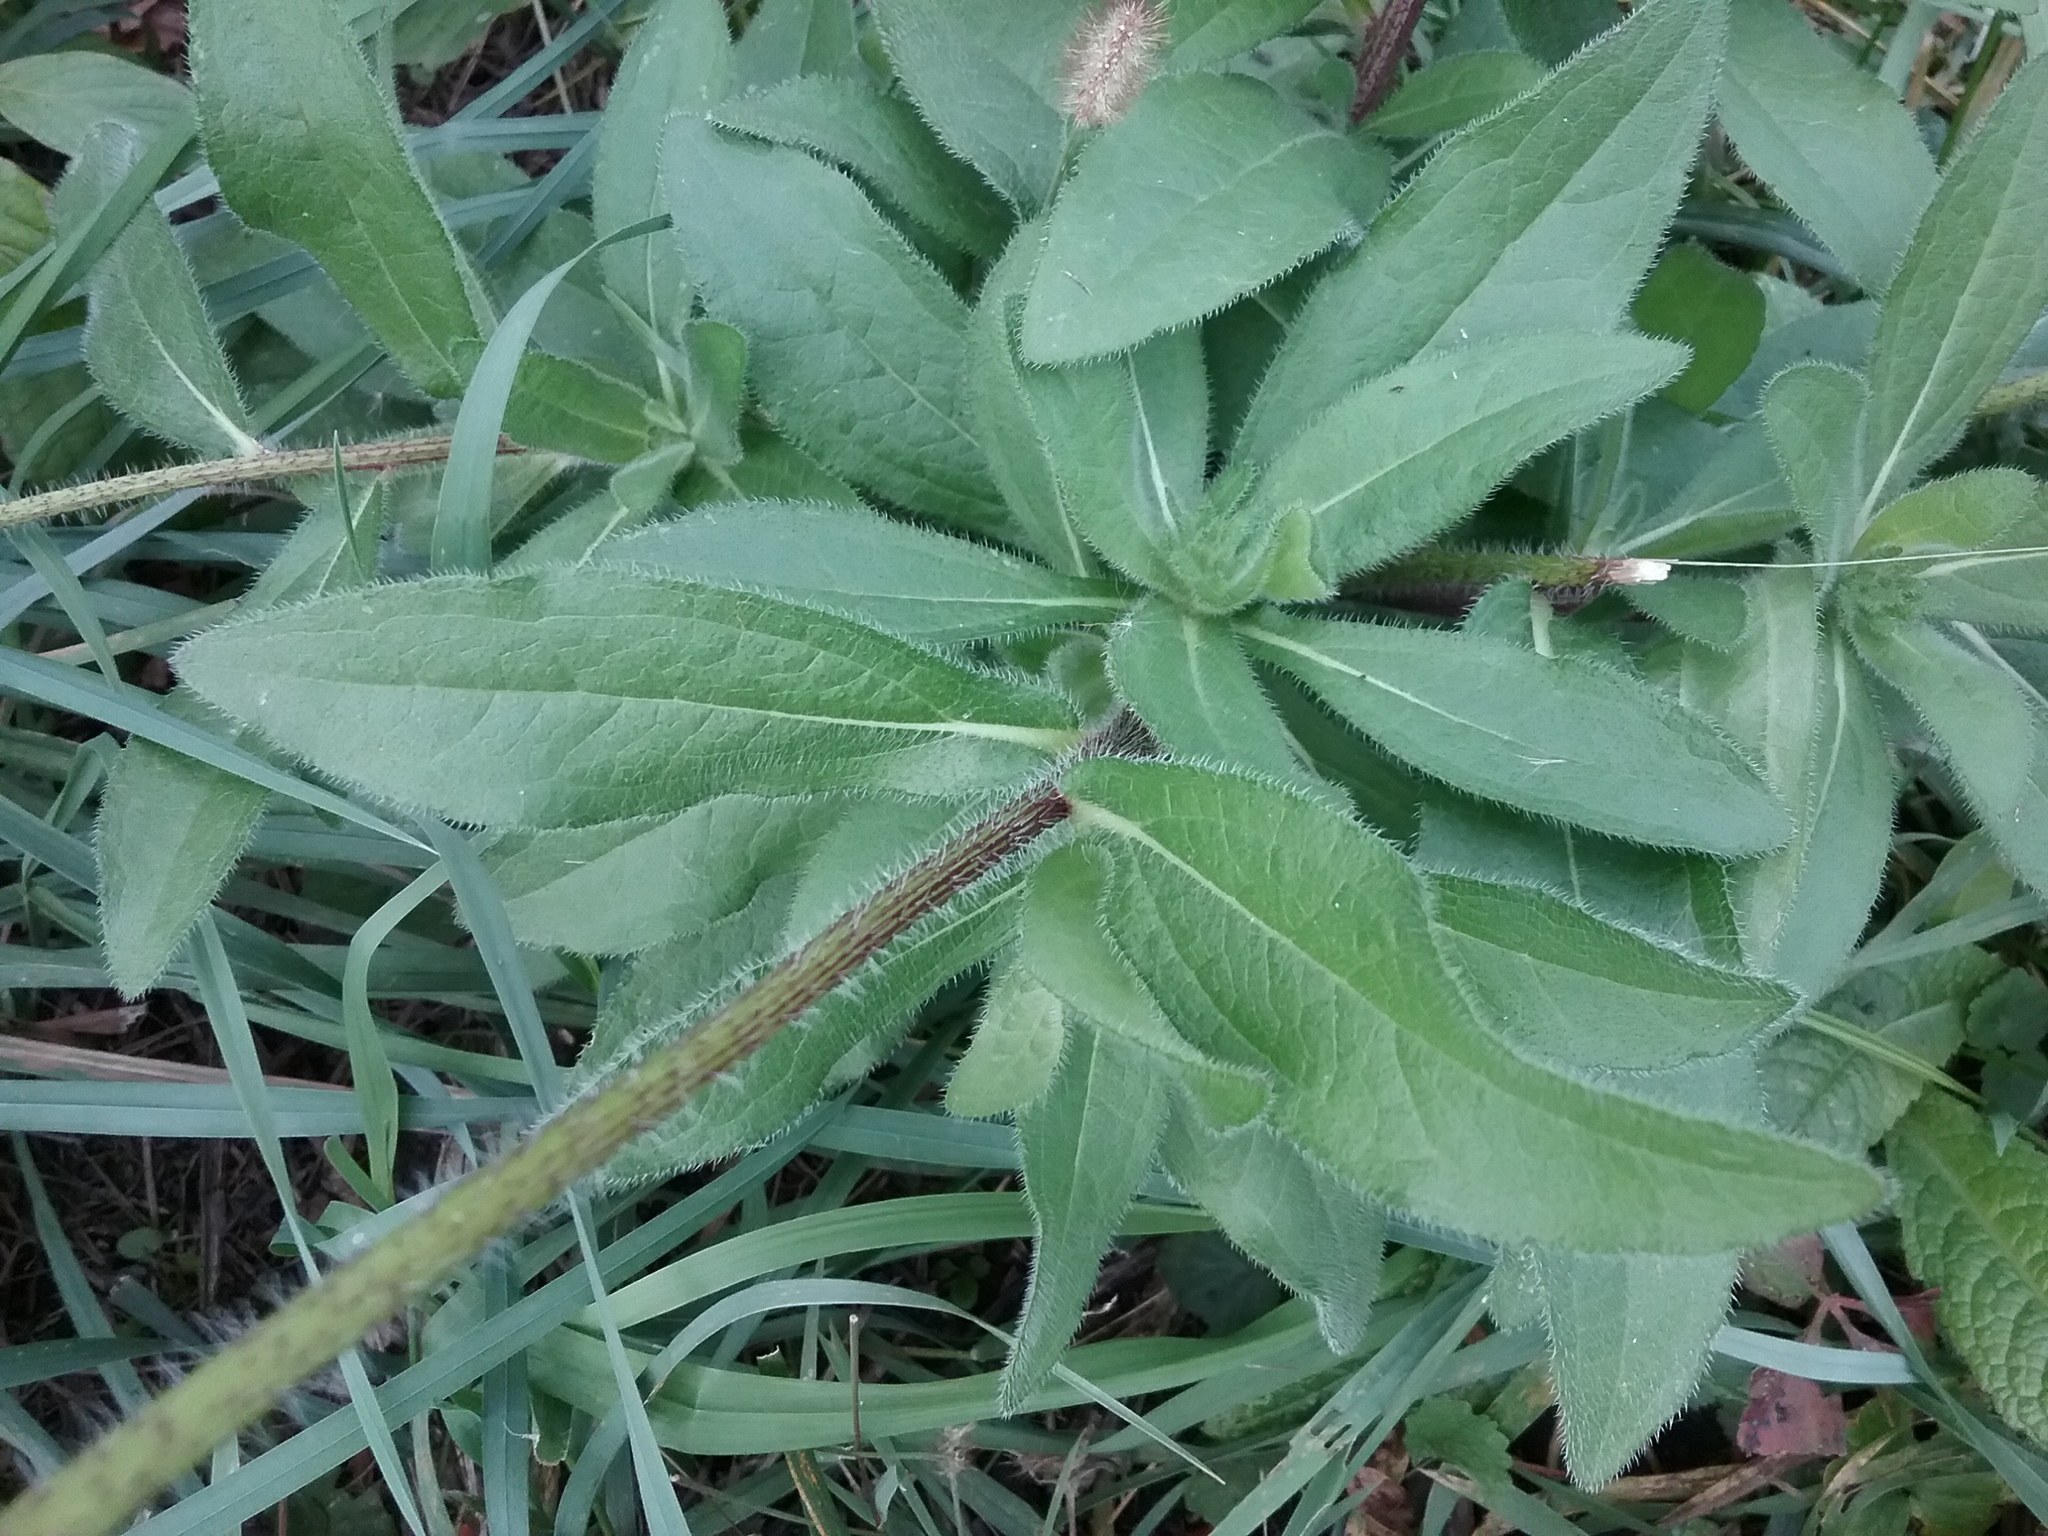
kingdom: Plantae
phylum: Tracheophyta
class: Magnoliopsida
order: Asterales
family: Asteraceae
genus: Rudbeckia
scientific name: Rudbeckia hirta
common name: Black-eyed-susan
